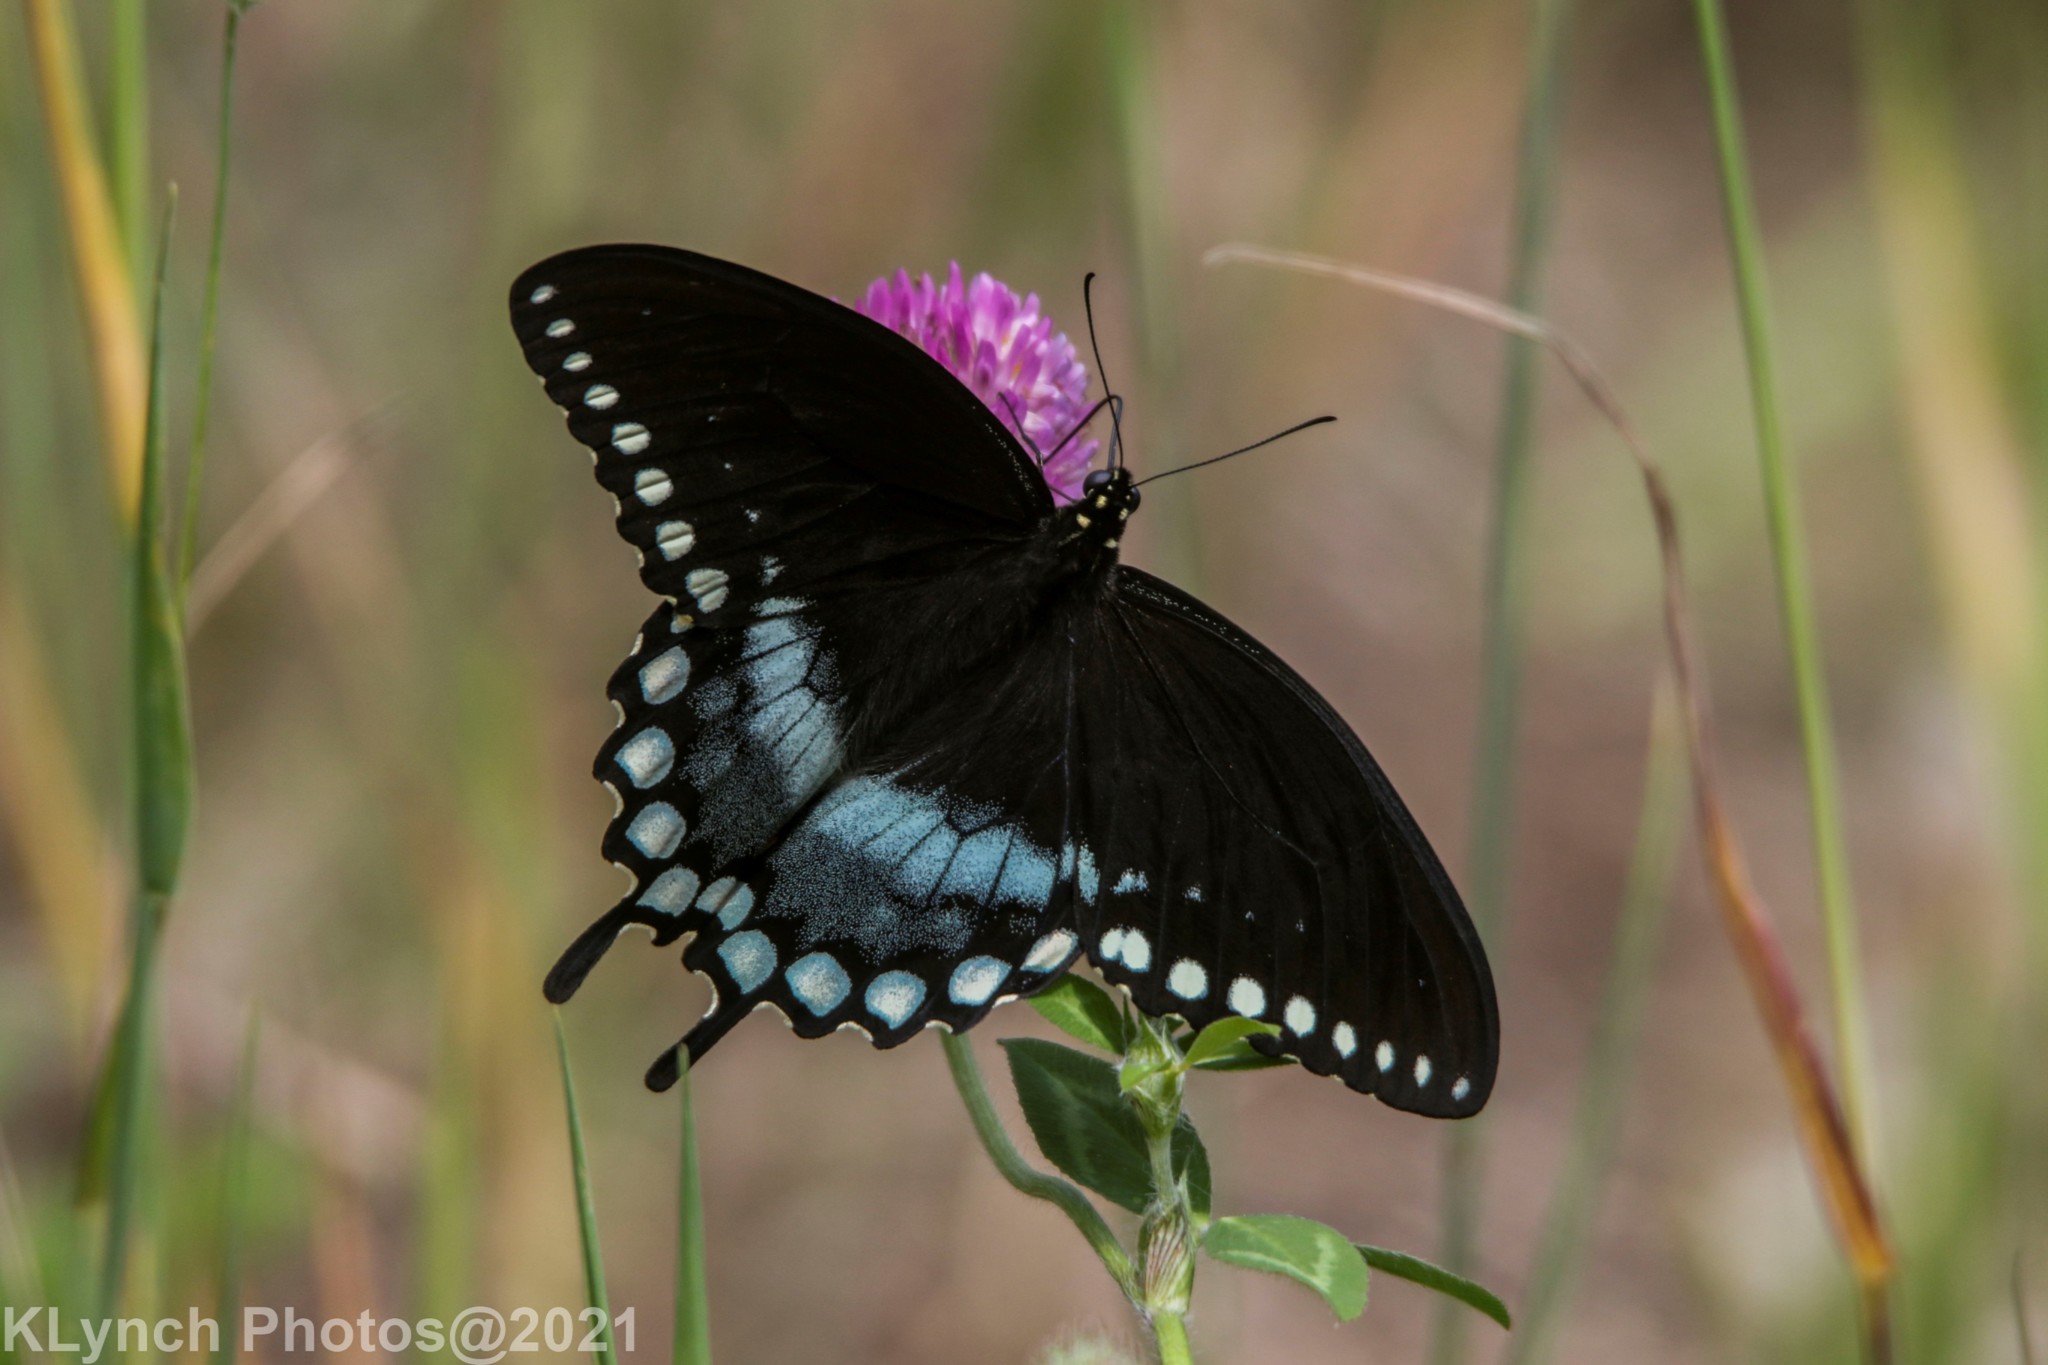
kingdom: Animalia
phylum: Arthropoda
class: Insecta
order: Lepidoptera
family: Papilionidae
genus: Papilio
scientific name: Papilio troilus
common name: Spicebush swallowtail
